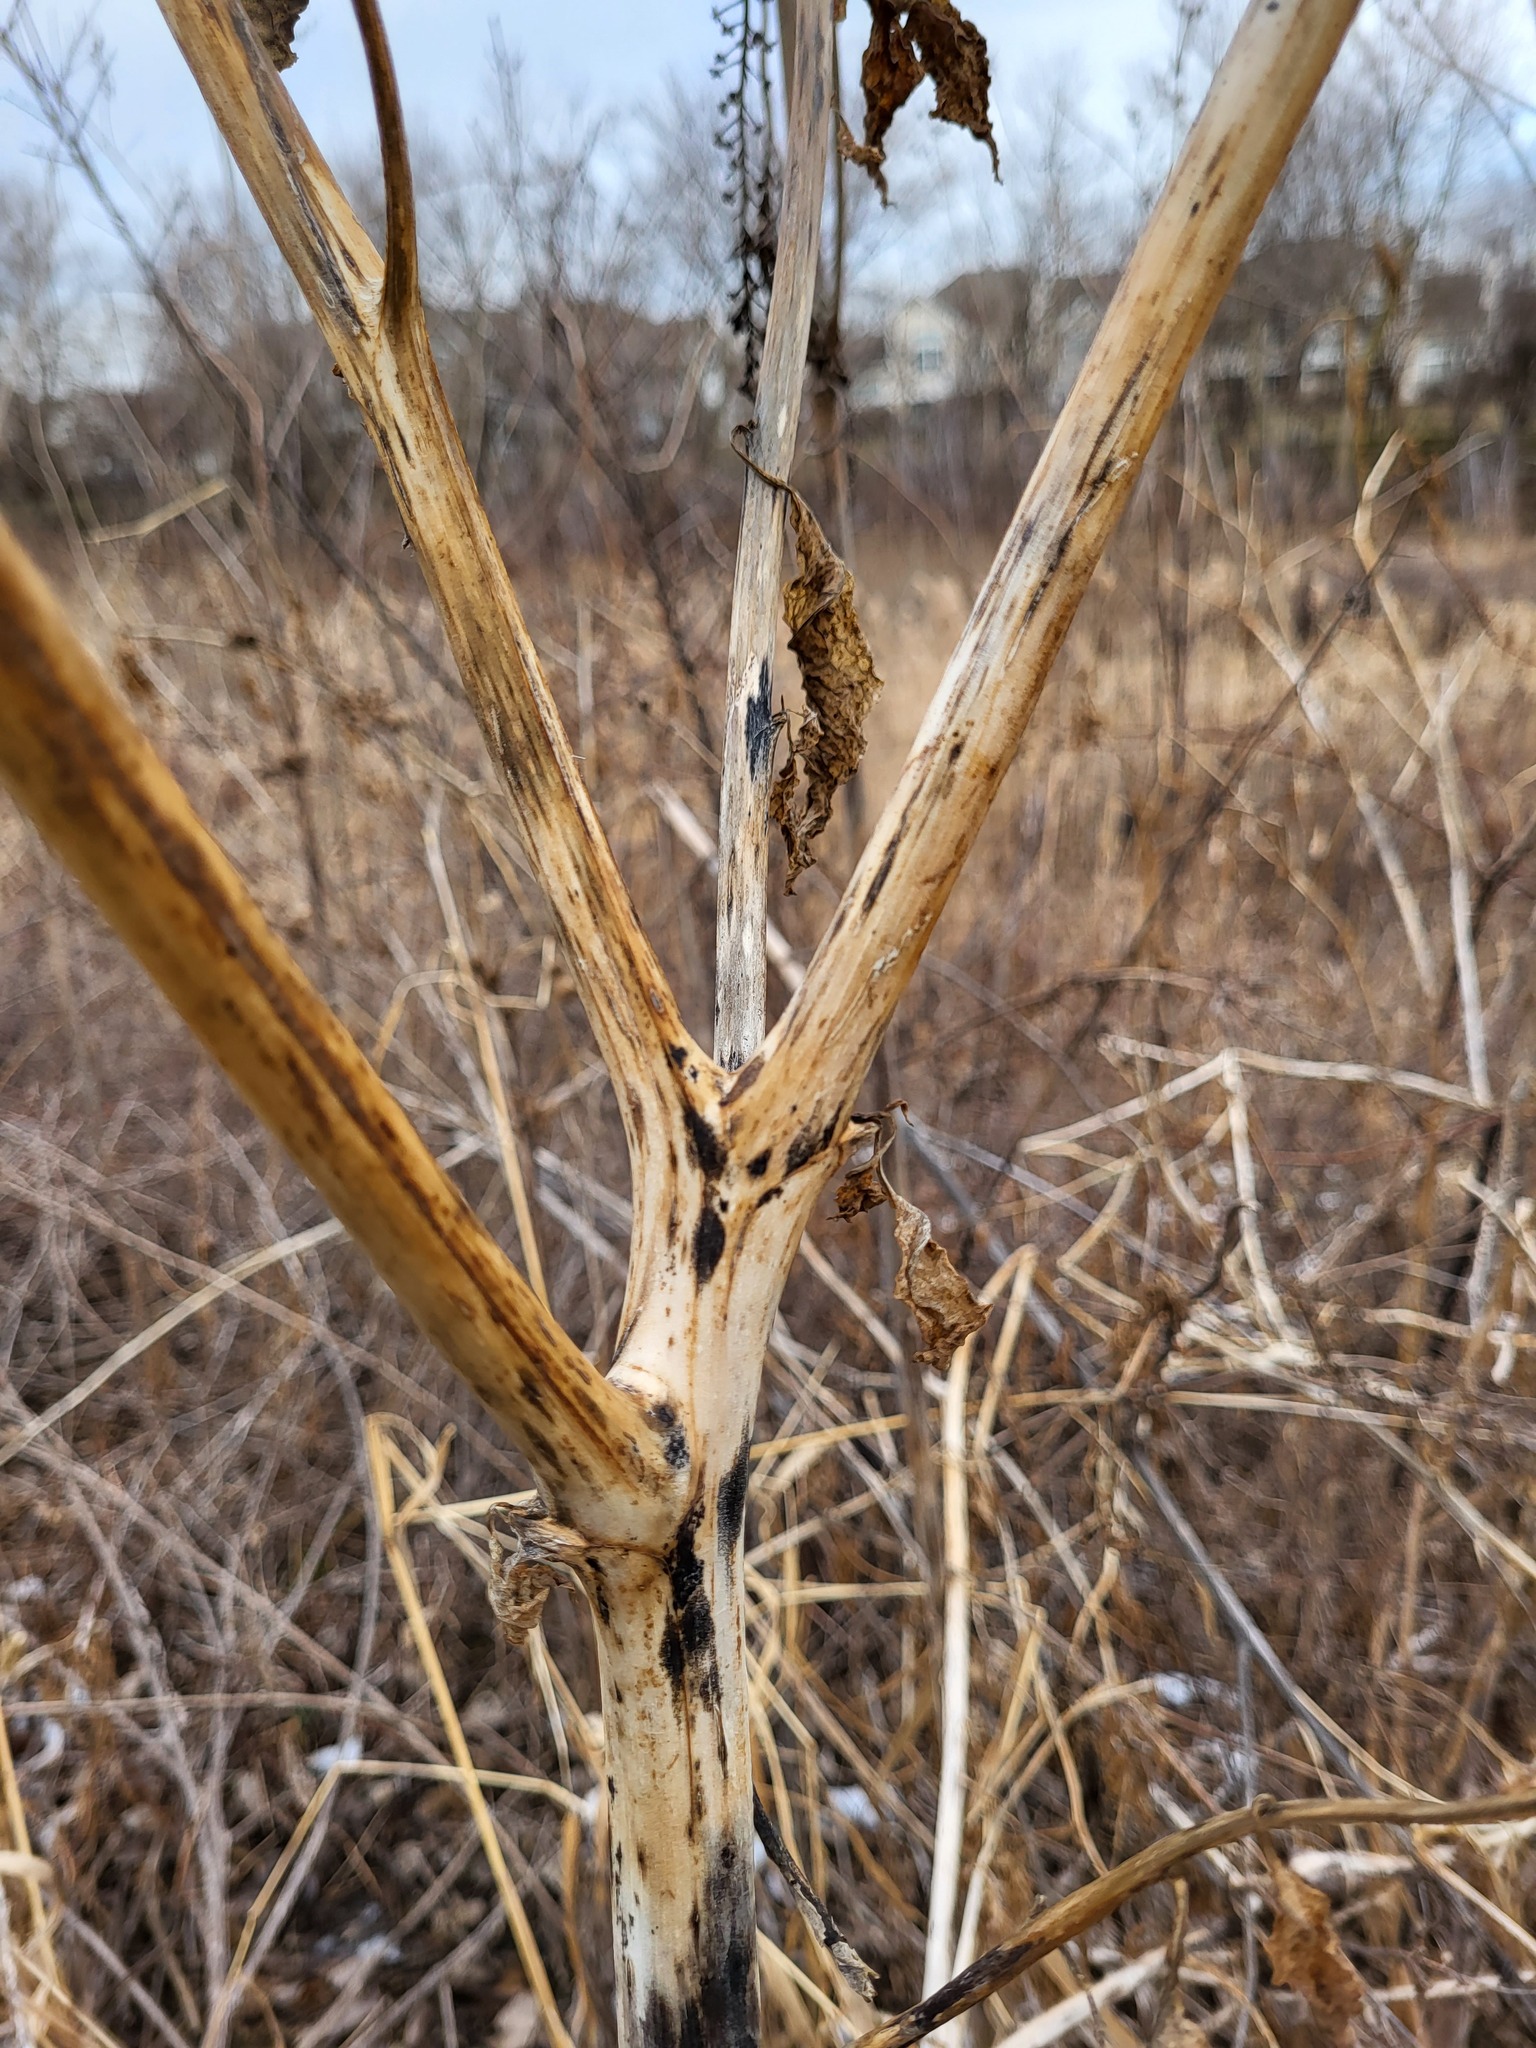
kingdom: Plantae
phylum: Tracheophyta
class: Magnoliopsida
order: Caryophyllales
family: Phytolaccaceae
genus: Phytolacca
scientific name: Phytolacca americana
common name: American pokeweed
